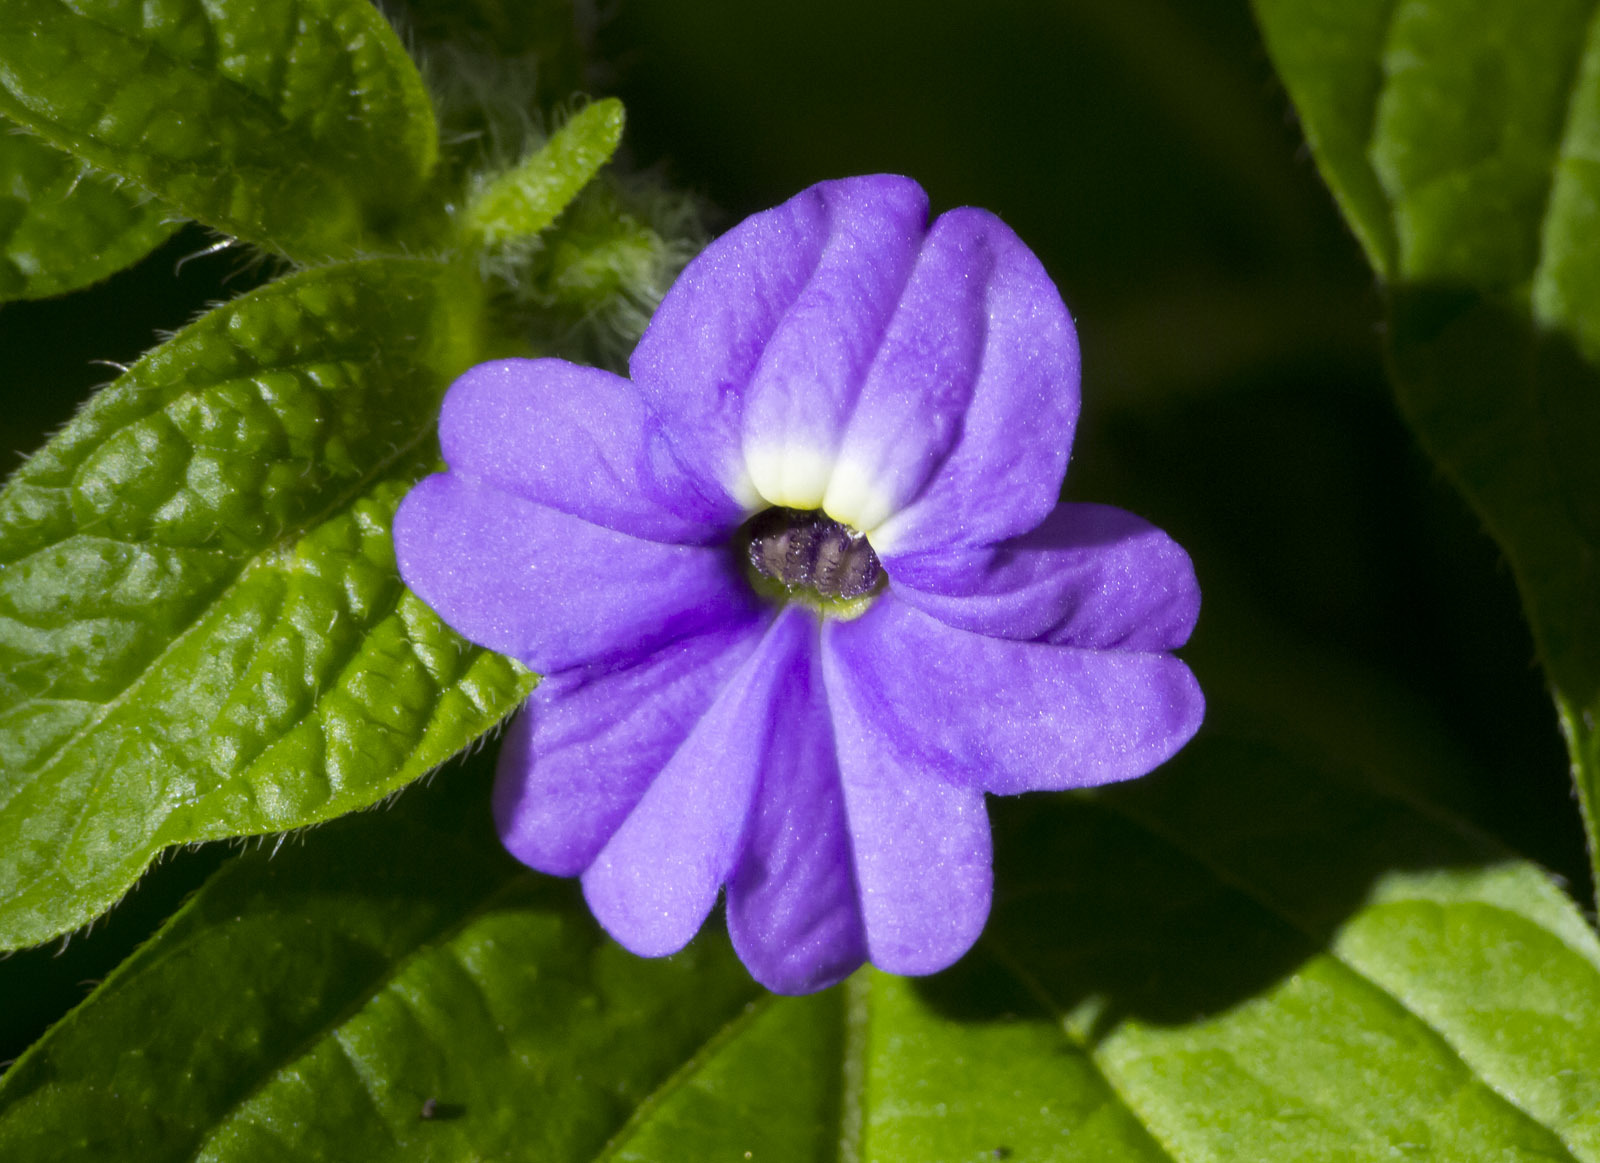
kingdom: Plantae
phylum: Tracheophyta
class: Magnoliopsida
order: Solanales
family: Solanaceae
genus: Browallia
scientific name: Browallia americana
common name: Jamaican forget-me-not
